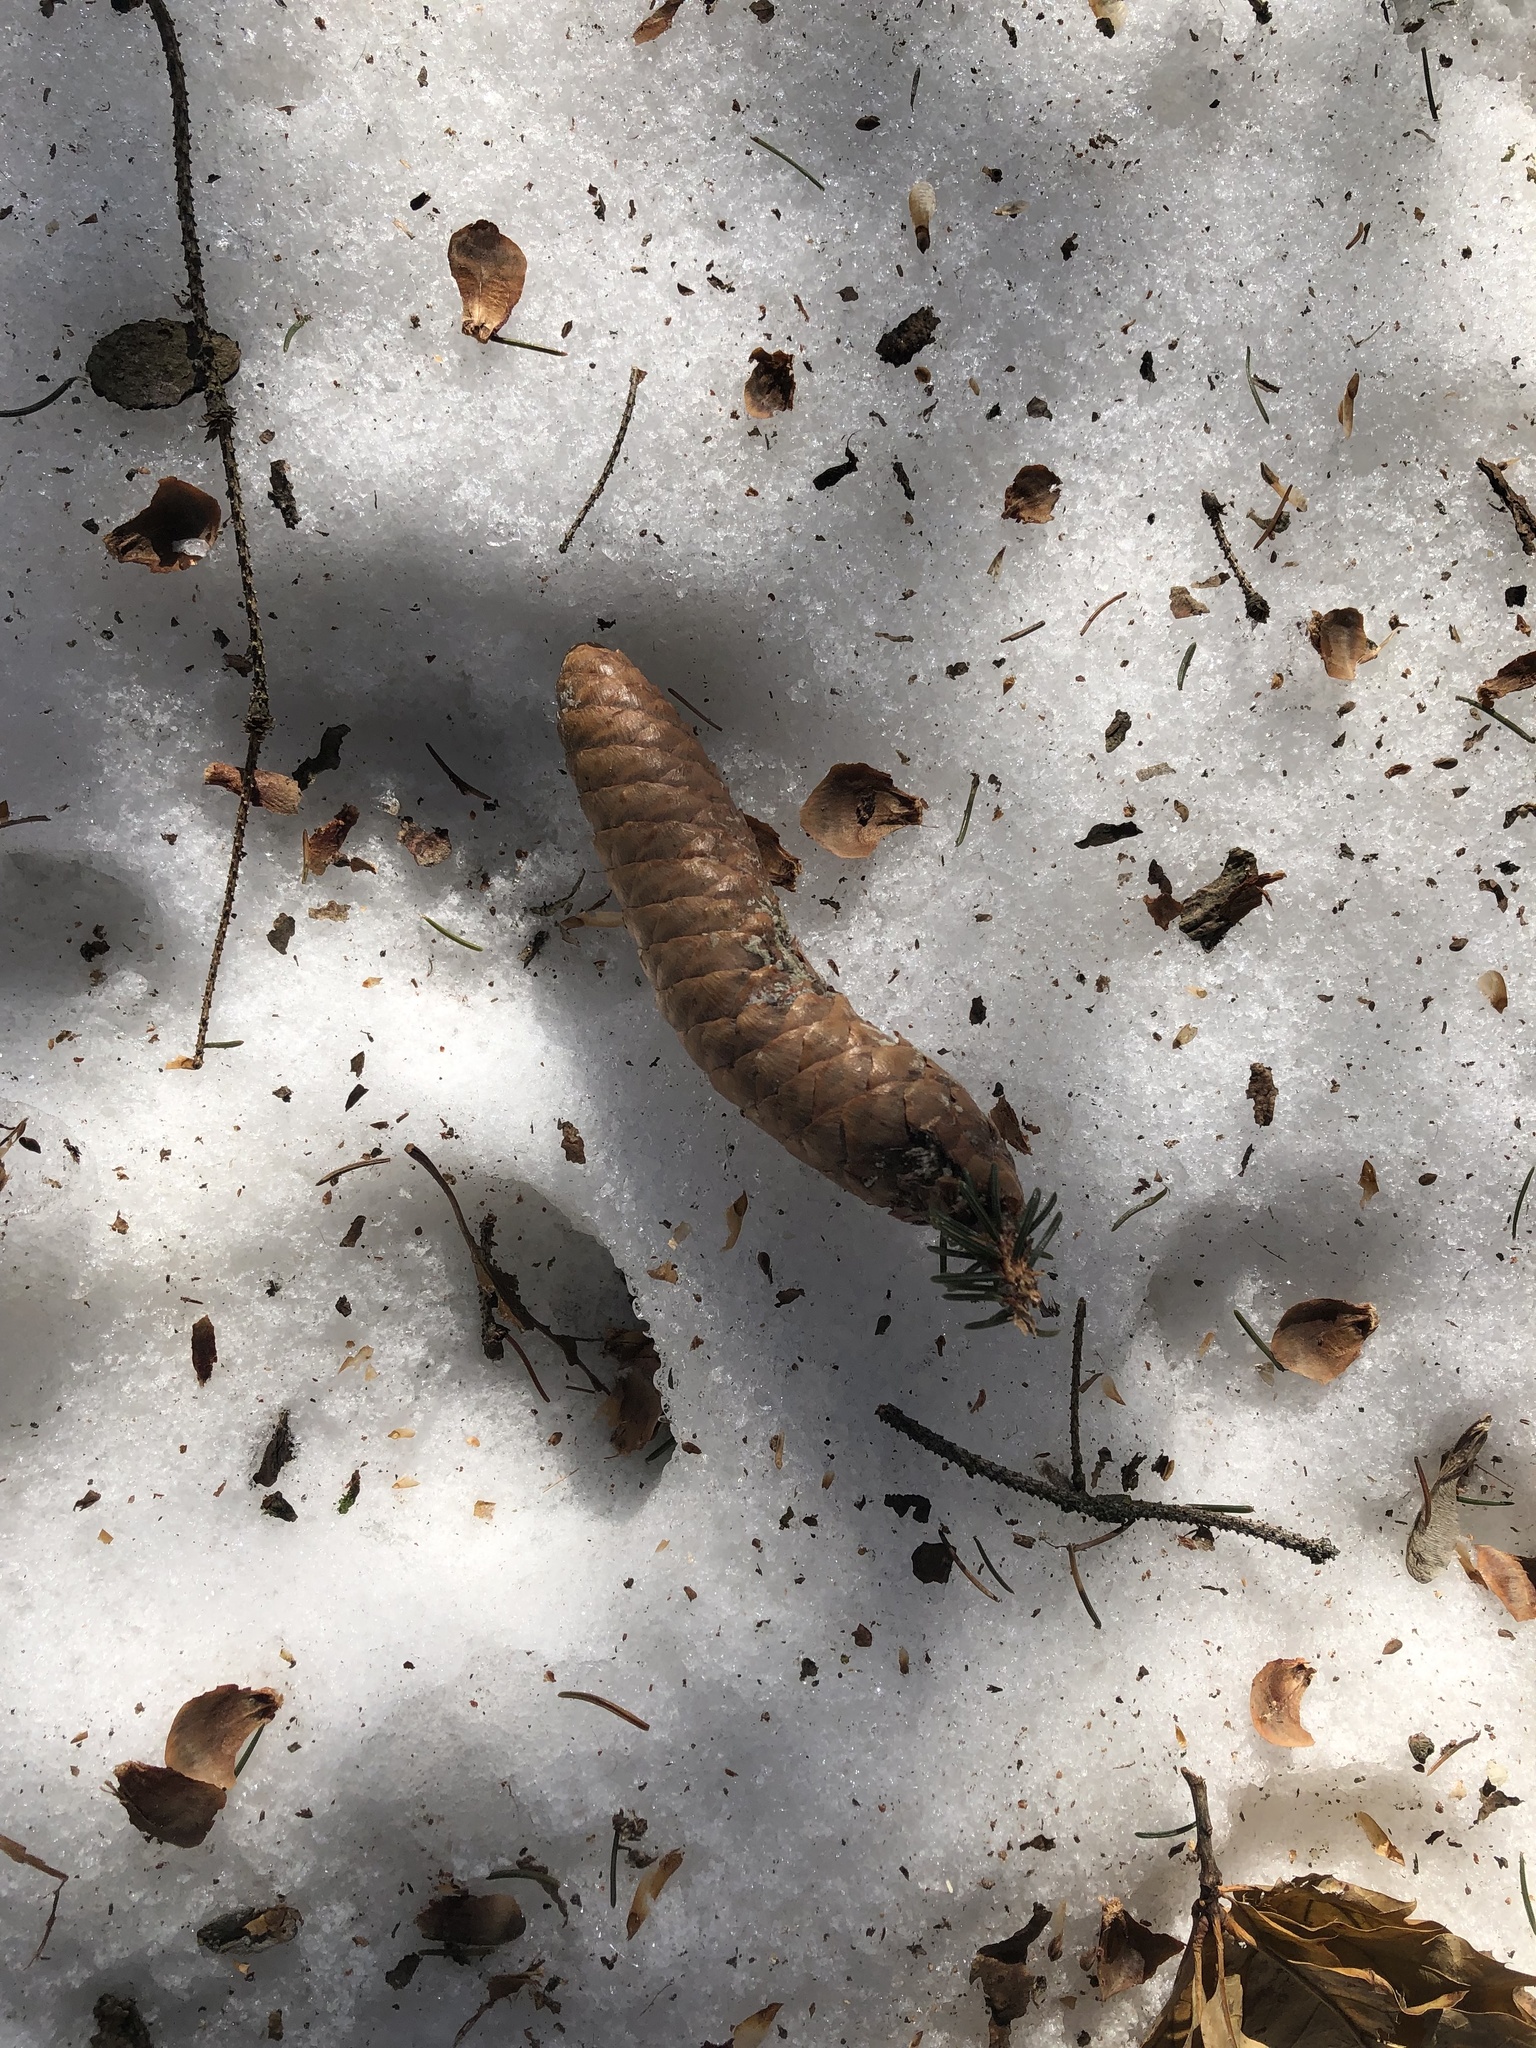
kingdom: Animalia
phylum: Chordata
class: Mammalia
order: Rodentia
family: Sciuridae
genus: Sciurus
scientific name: Sciurus carolinensis
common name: Eastern gray squirrel
